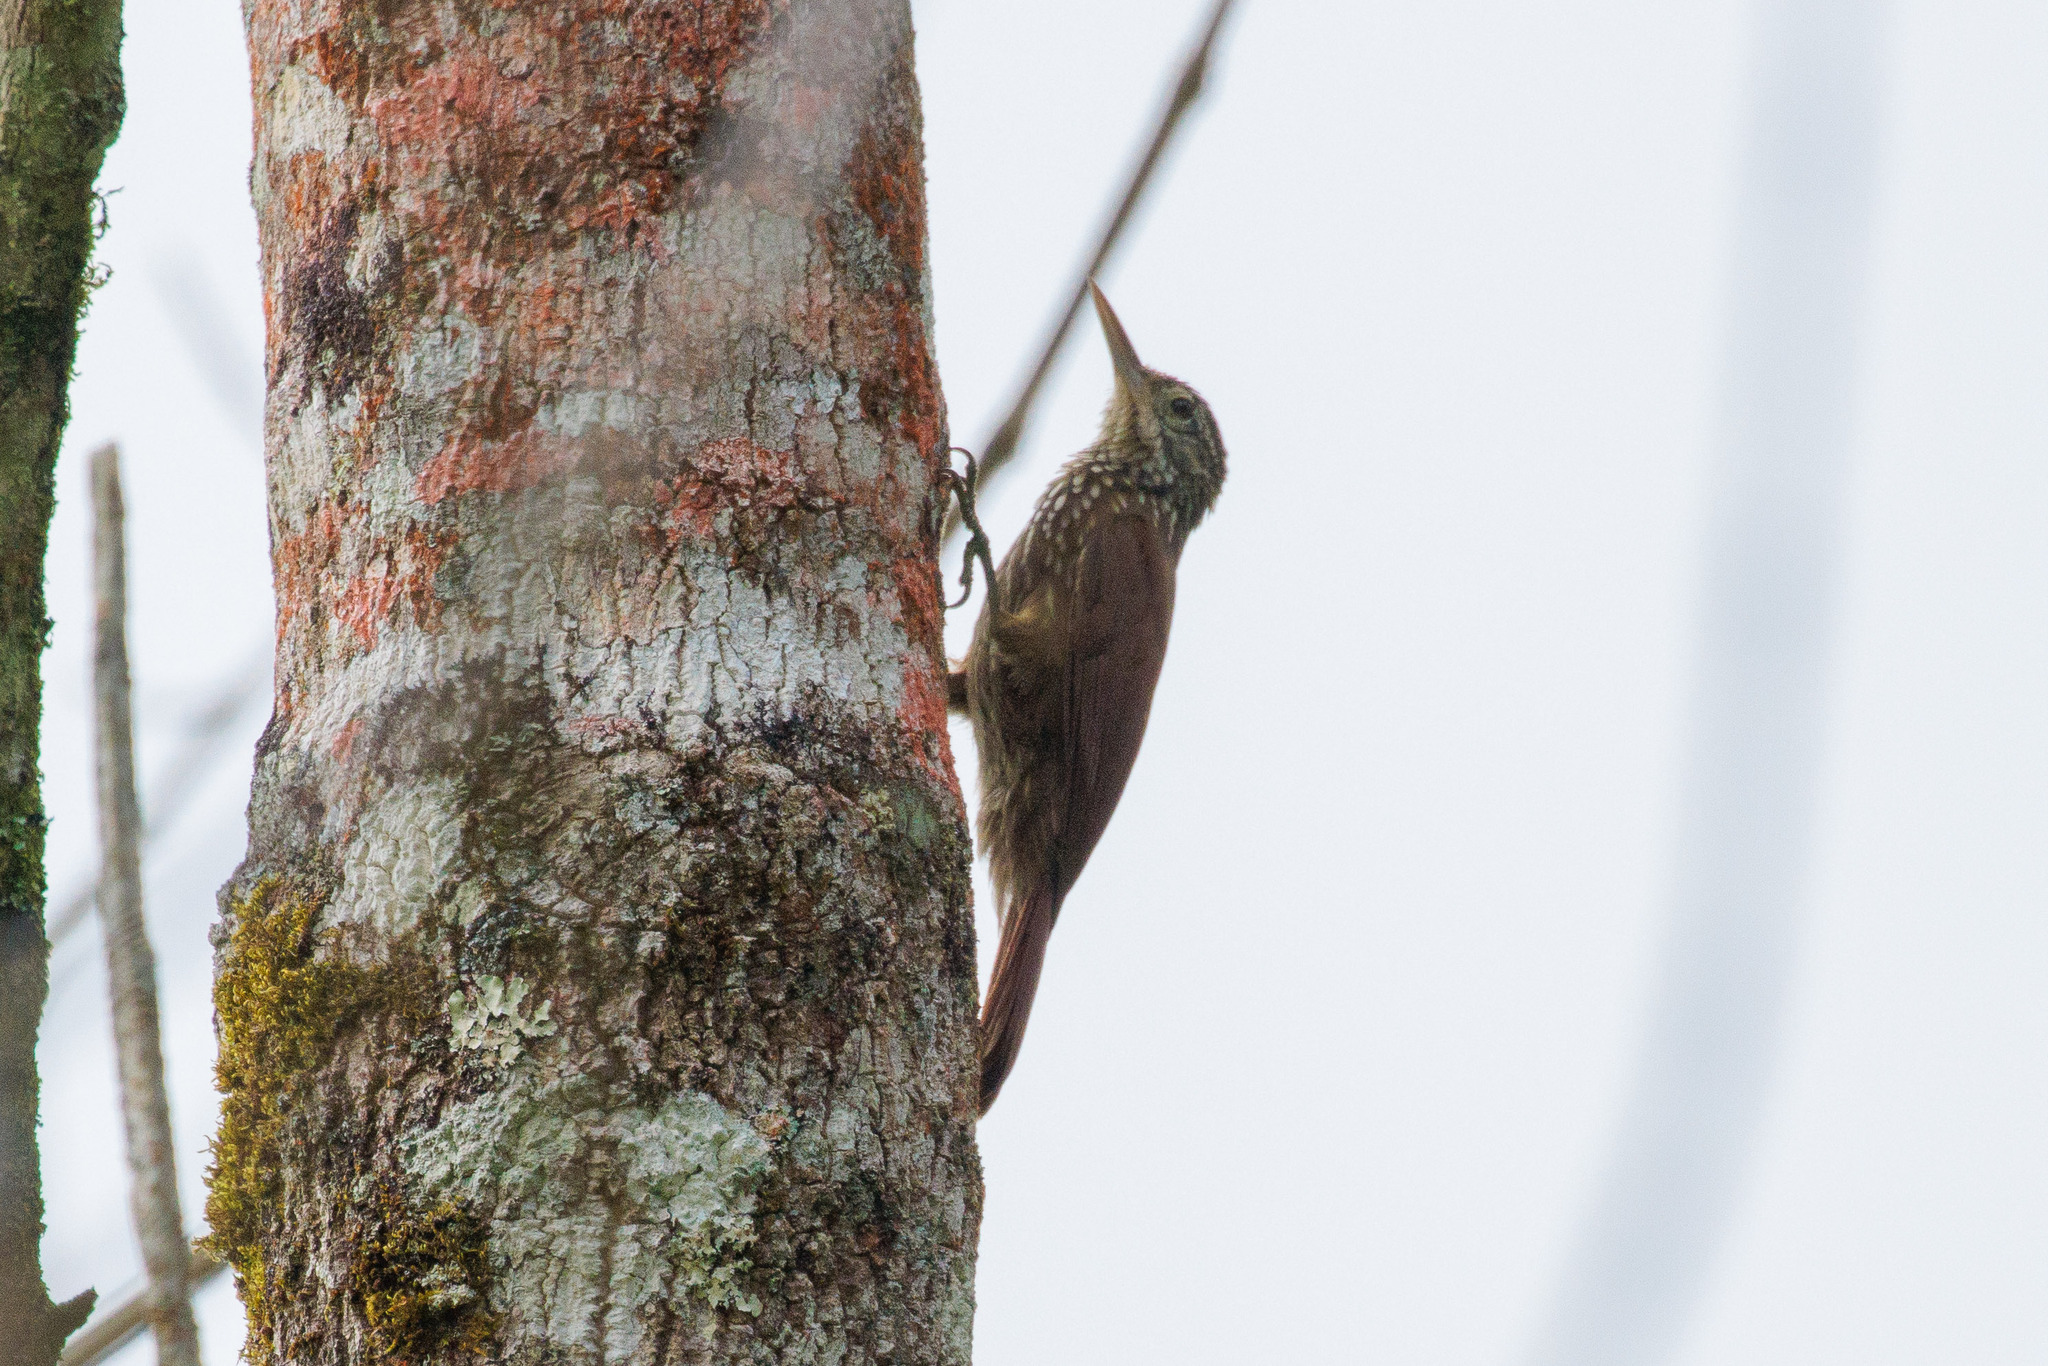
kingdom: Animalia
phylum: Chordata
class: Aves
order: Passeriformes
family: Furnariidae
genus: Xiphorhynchus
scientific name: Xiphorhynchus picus
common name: Straight-billed woodcreeper
